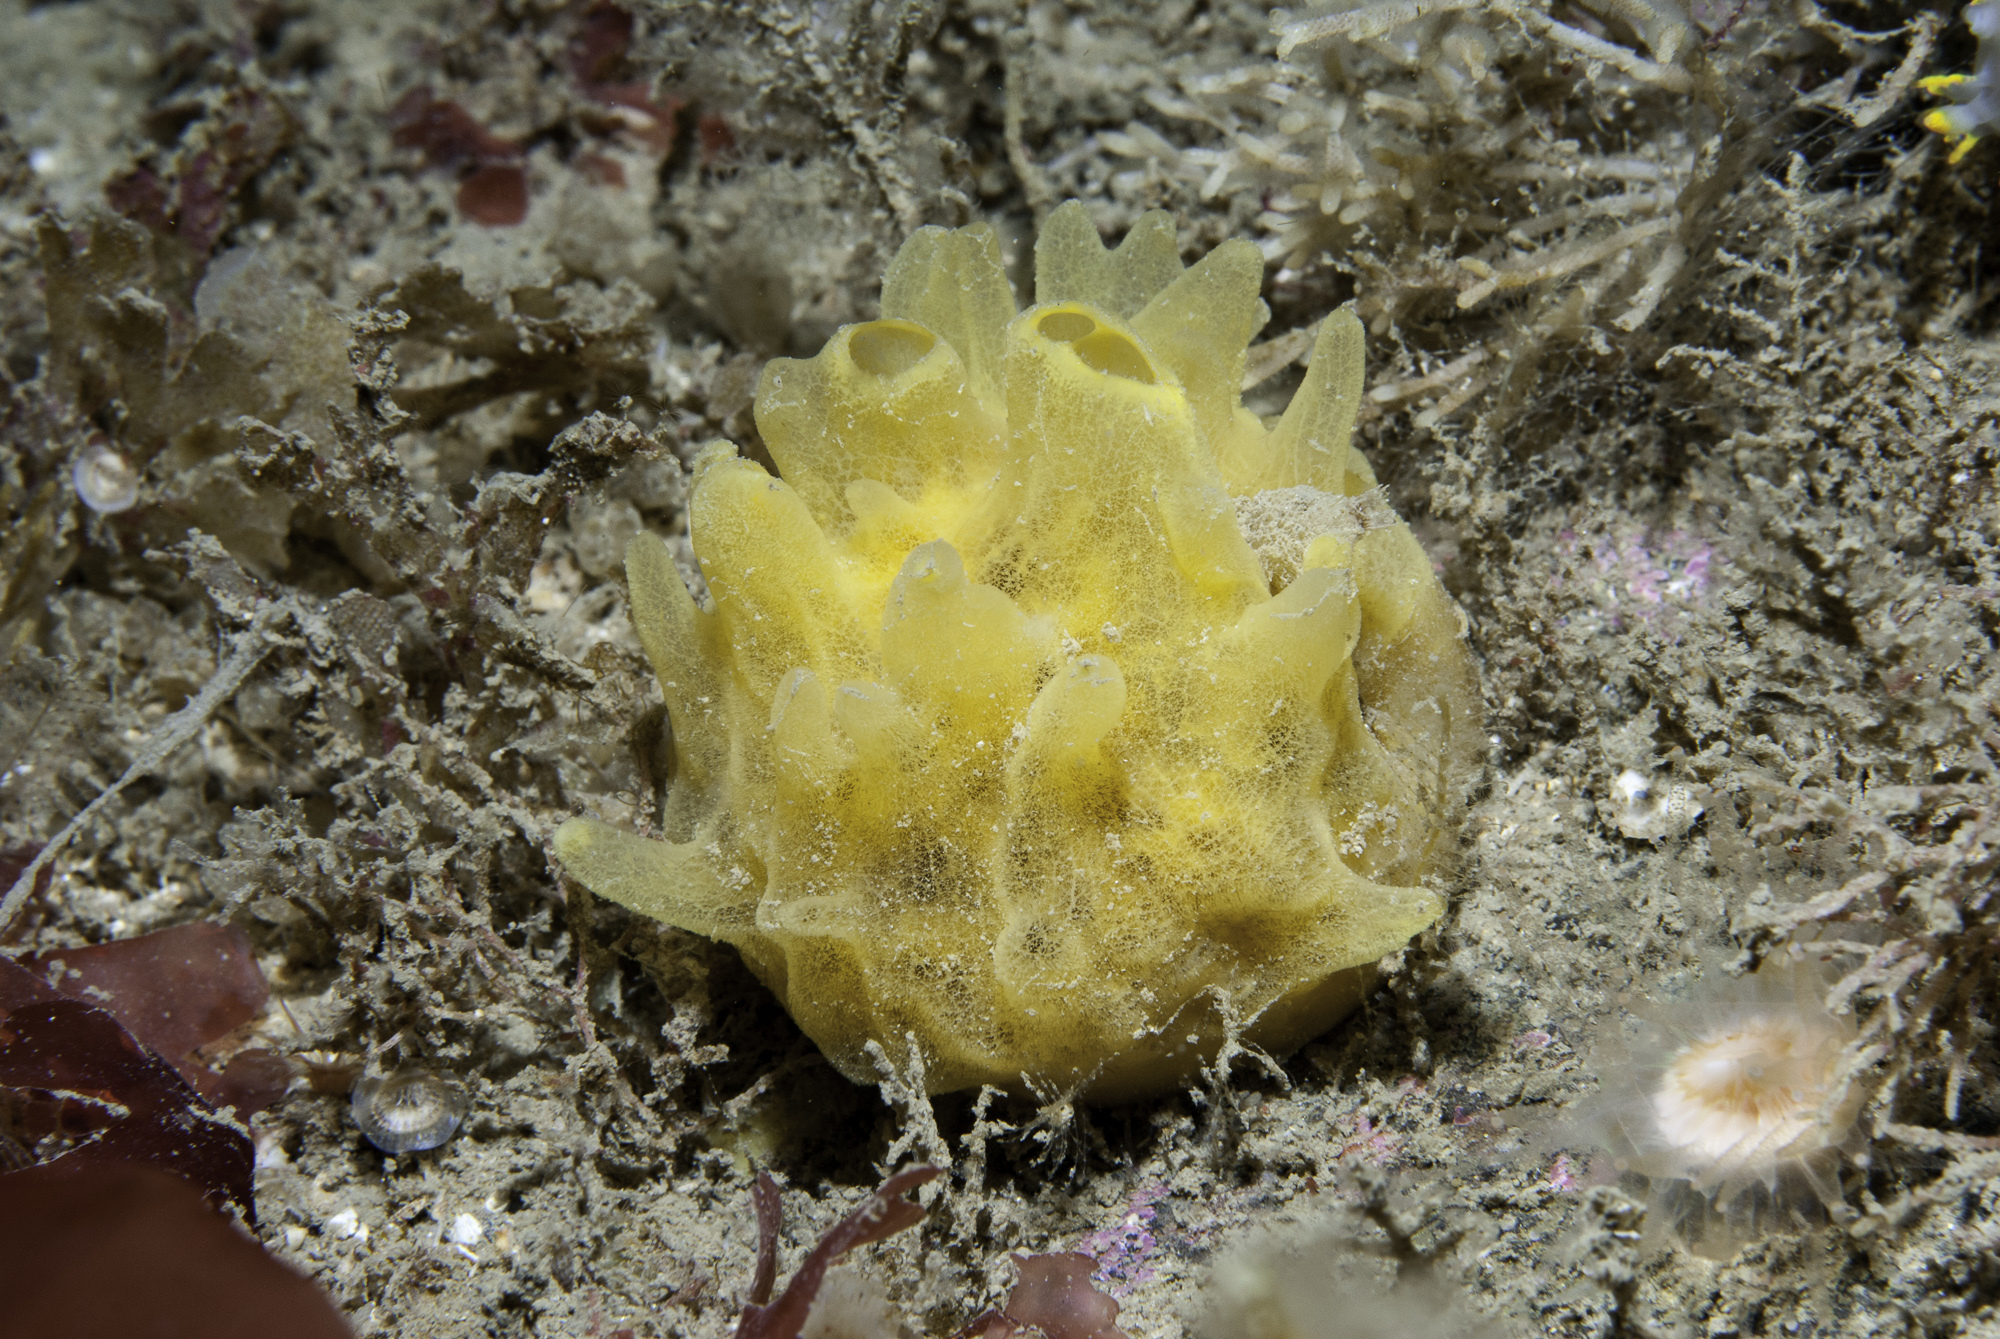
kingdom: Animalia
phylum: Porifera
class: Demospongiae
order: Polymastiida
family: Polymastiidae
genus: Polymastia
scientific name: Polymastia boletiformis
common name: Massive horny sponge
